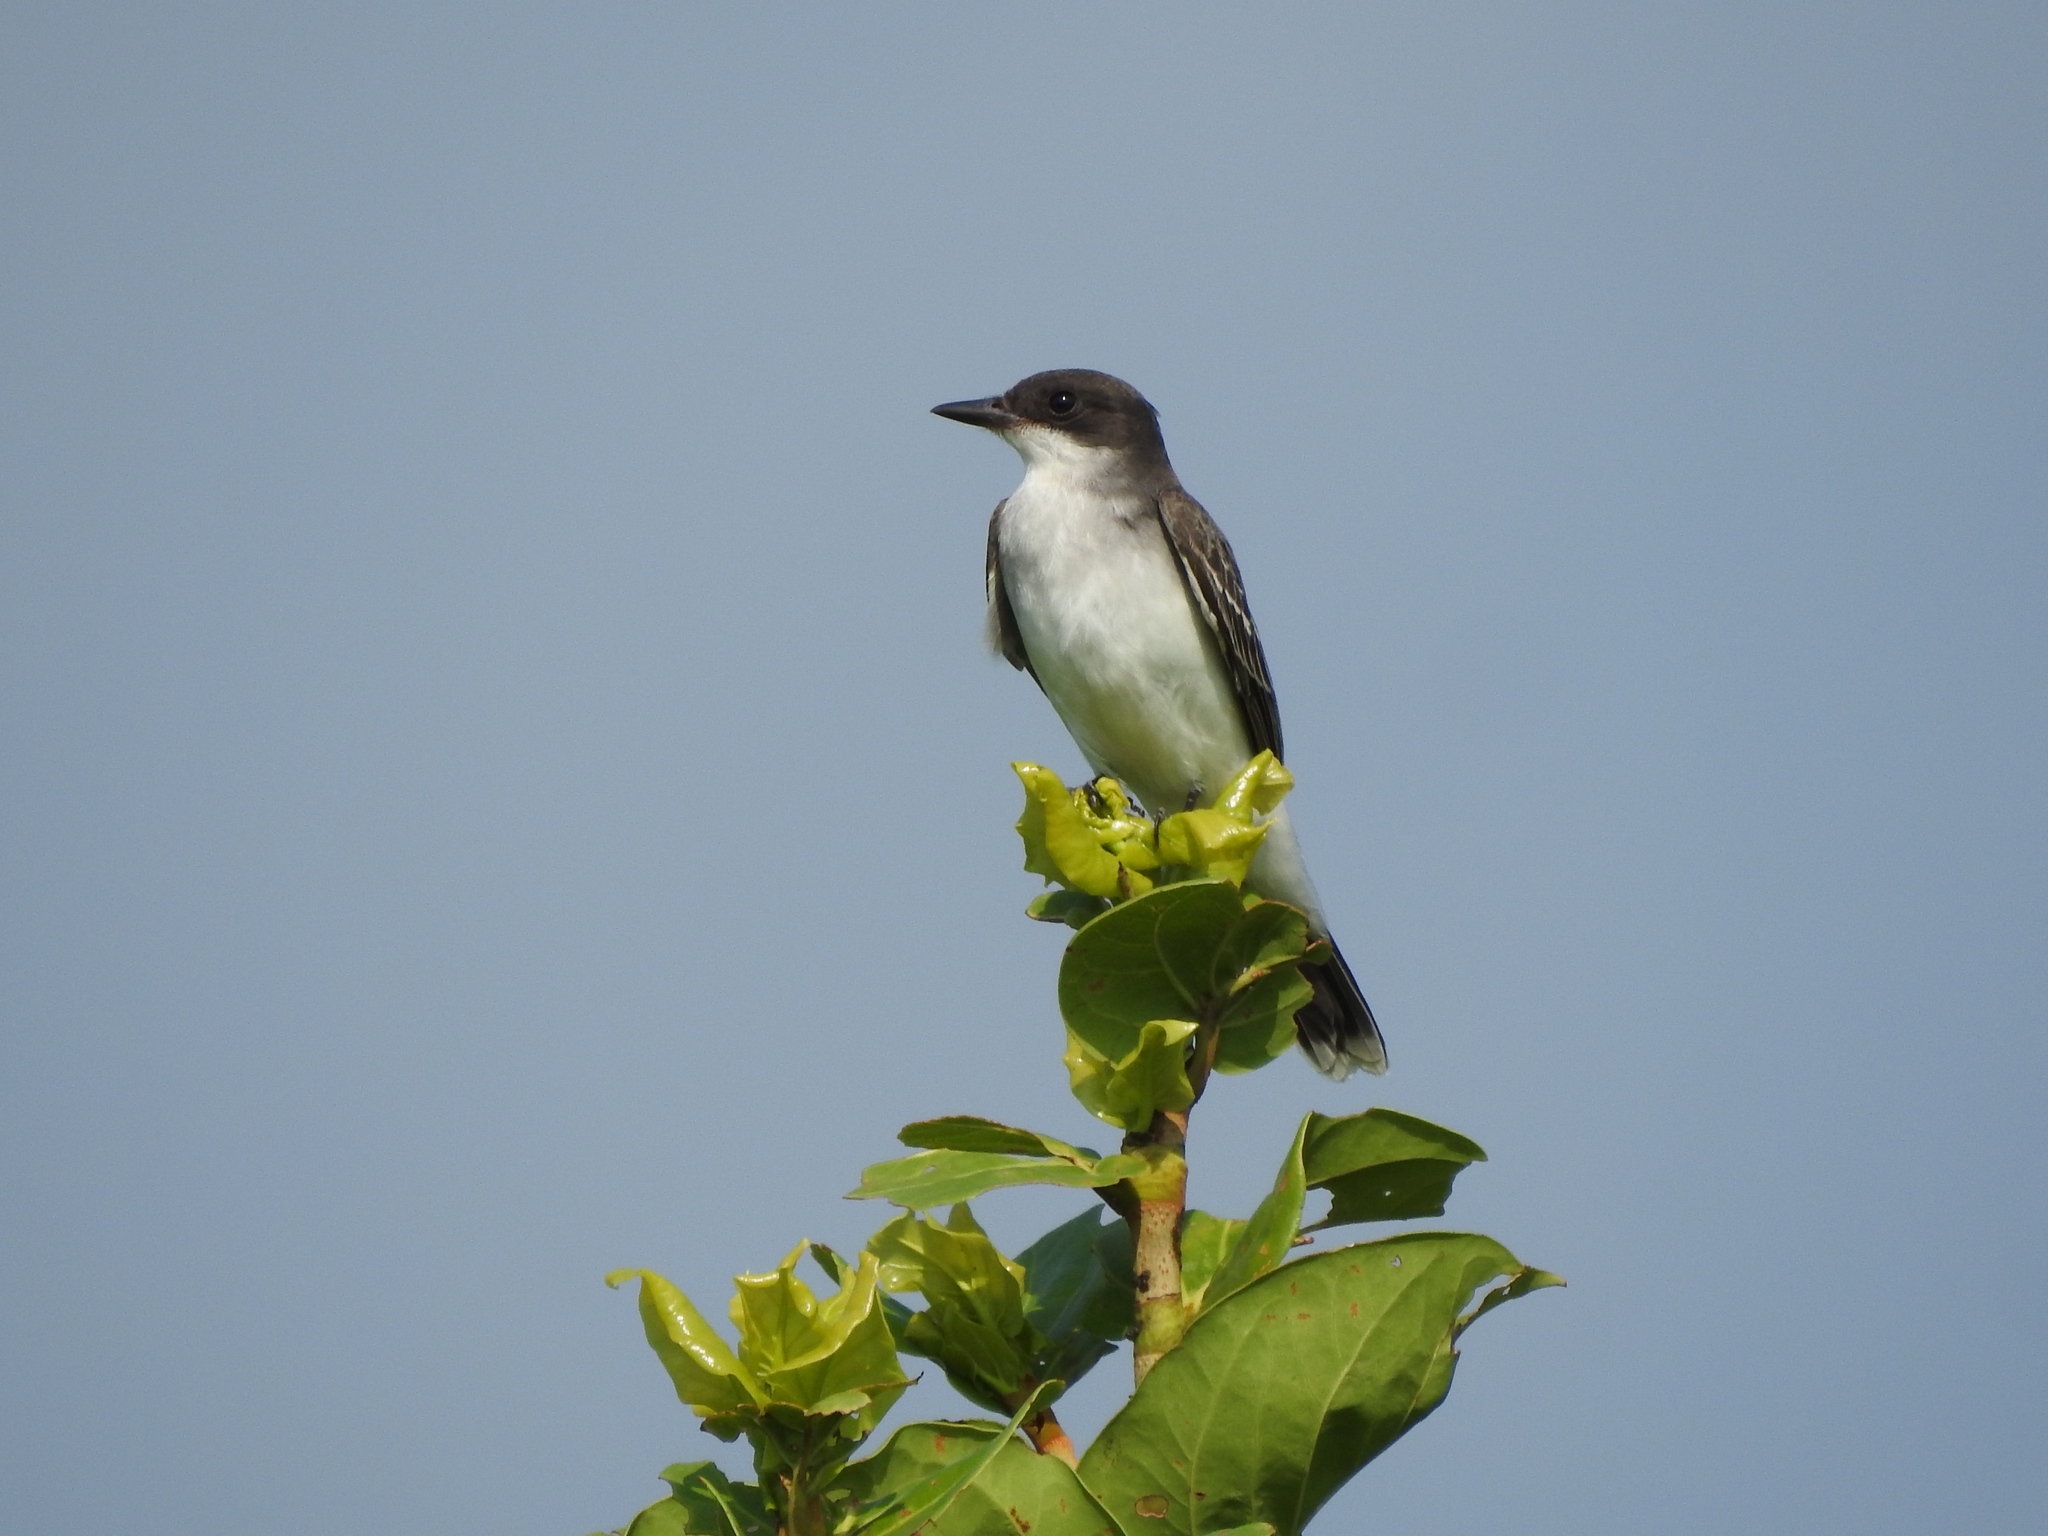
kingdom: Animalia
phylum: Chordata
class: Aves
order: Passeriformes
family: Tyrannidae
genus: Tyrannus
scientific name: Tyrannus tyrannus
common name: Eastern kingbird
